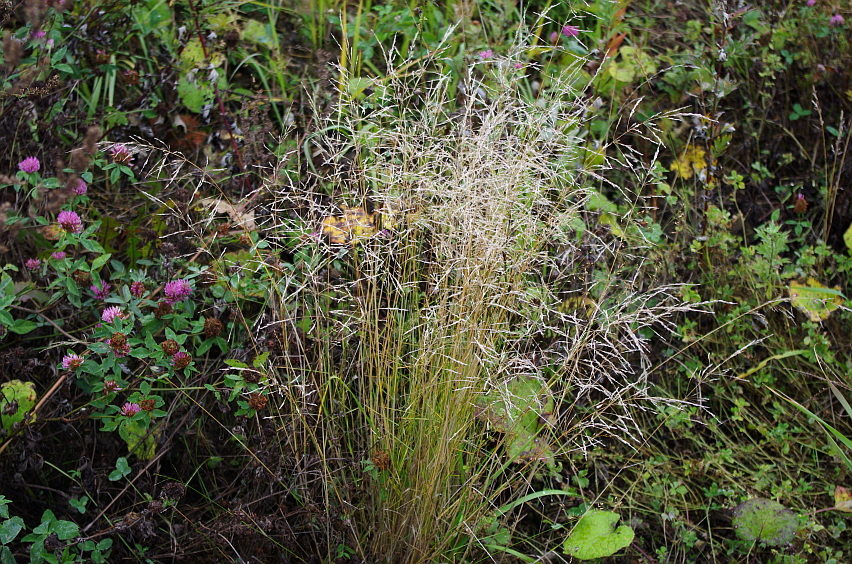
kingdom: Plantae
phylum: Tracheophyta
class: Liliopsida
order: Poales
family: Poaceae
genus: Deschampsia
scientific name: Deschampsia cespitosa
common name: Tufted hair-grass
